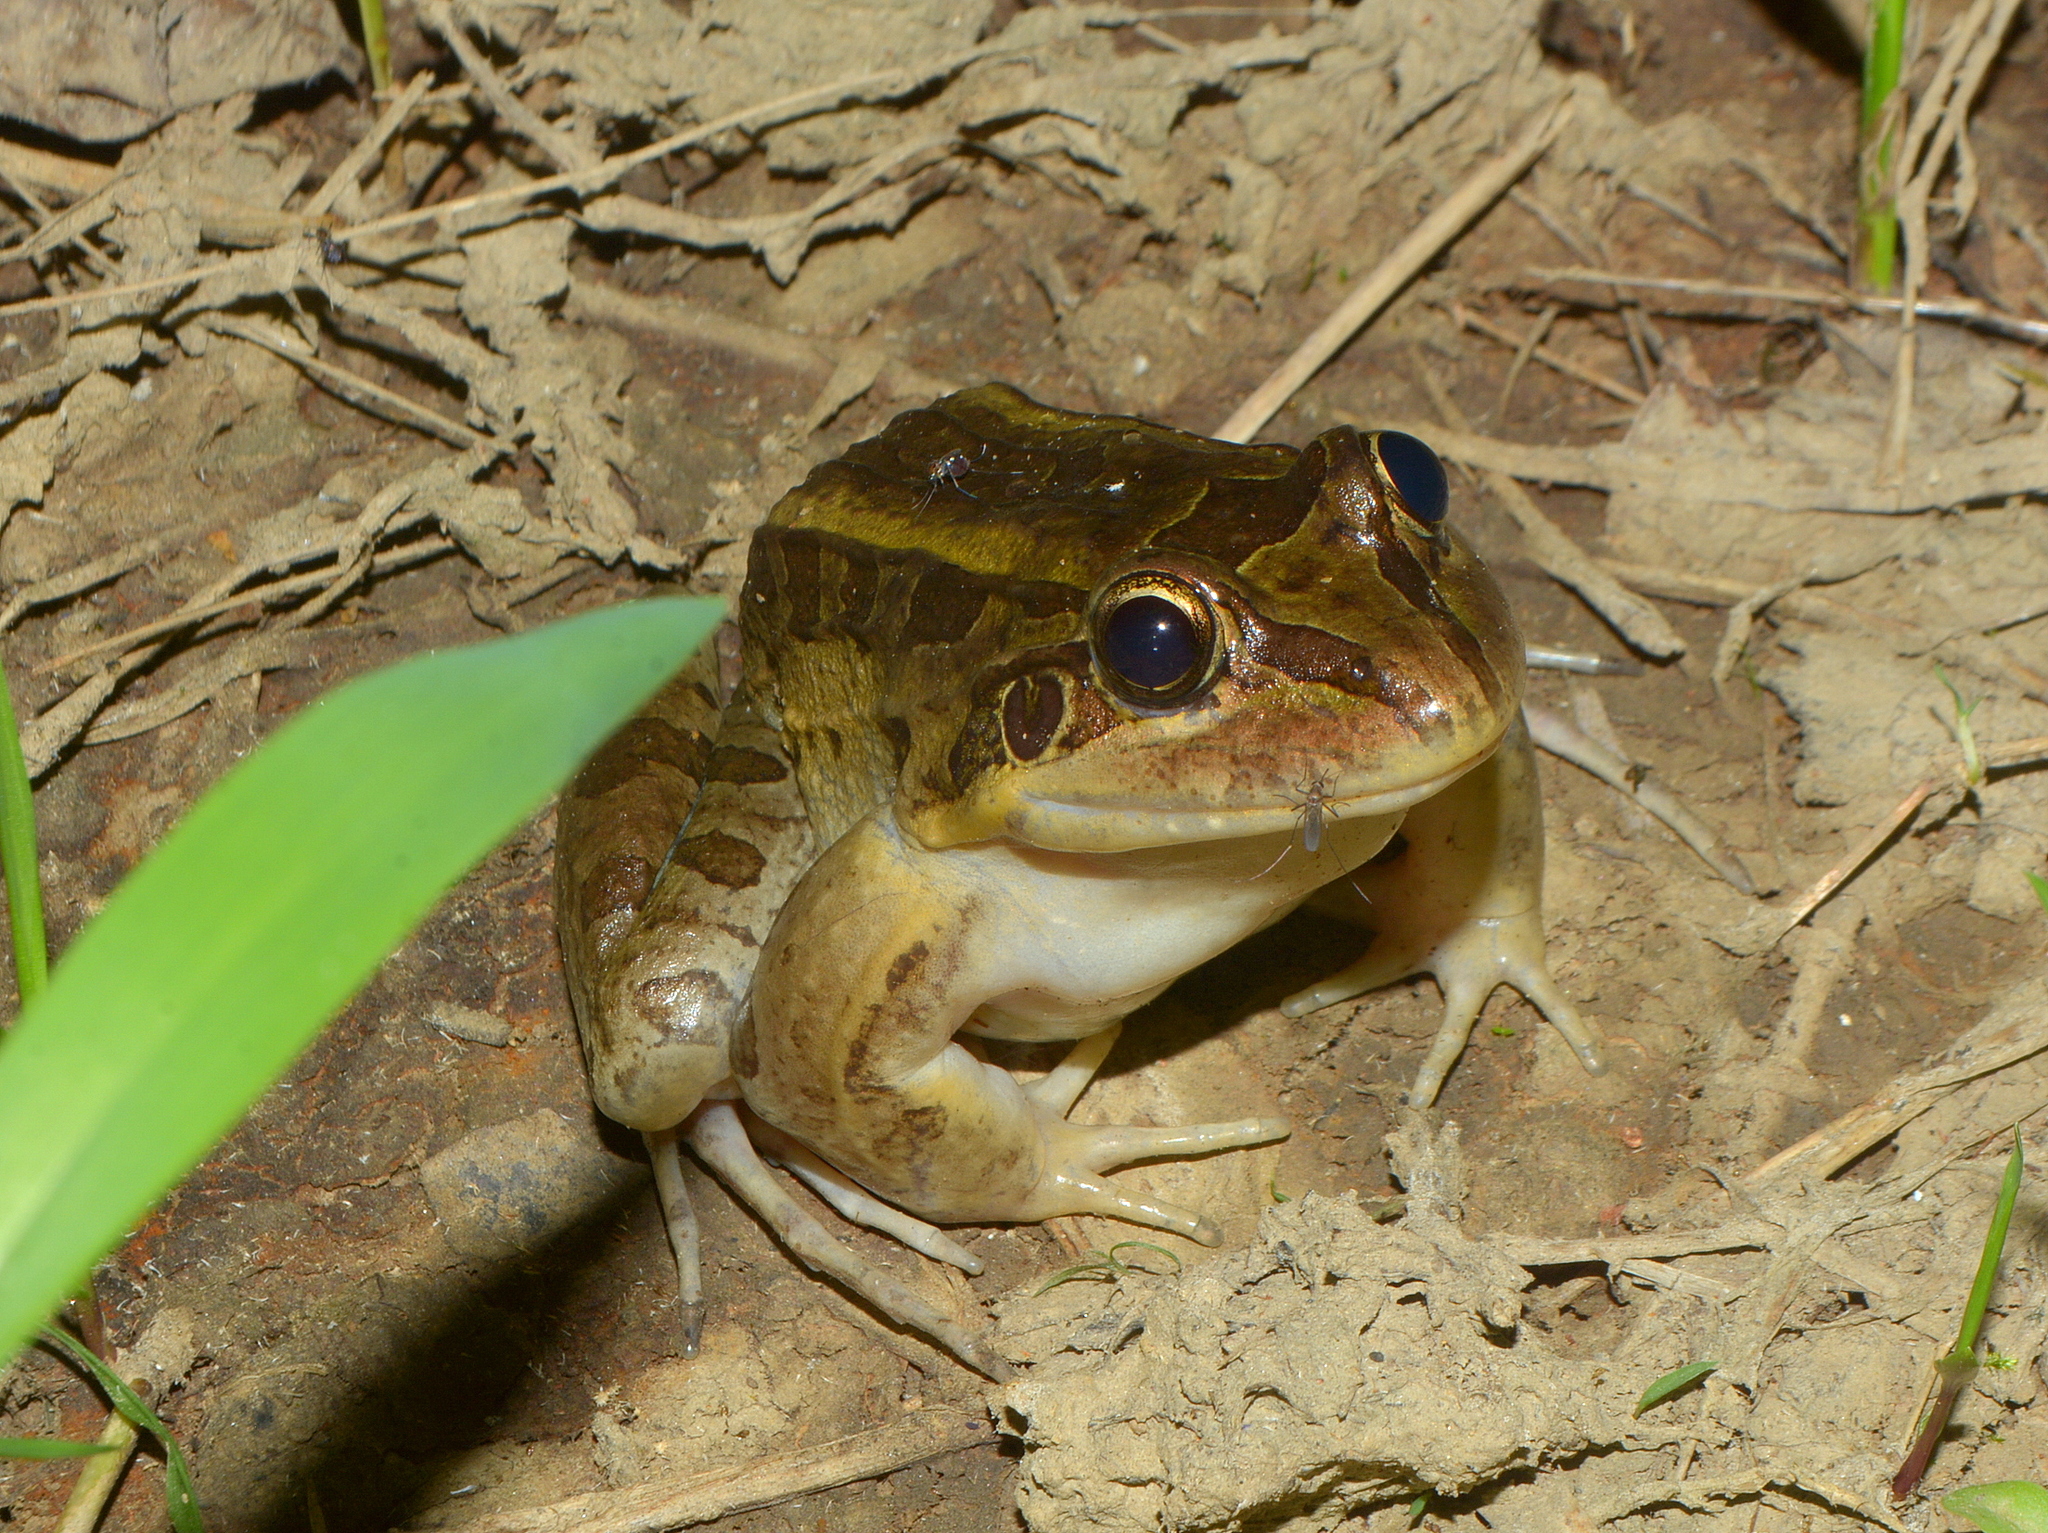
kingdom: Animalia
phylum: Chordata
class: Amphibia
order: Anura
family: Leptodactylidae
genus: Leptodactylus
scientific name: Leptodactylus paranaru
